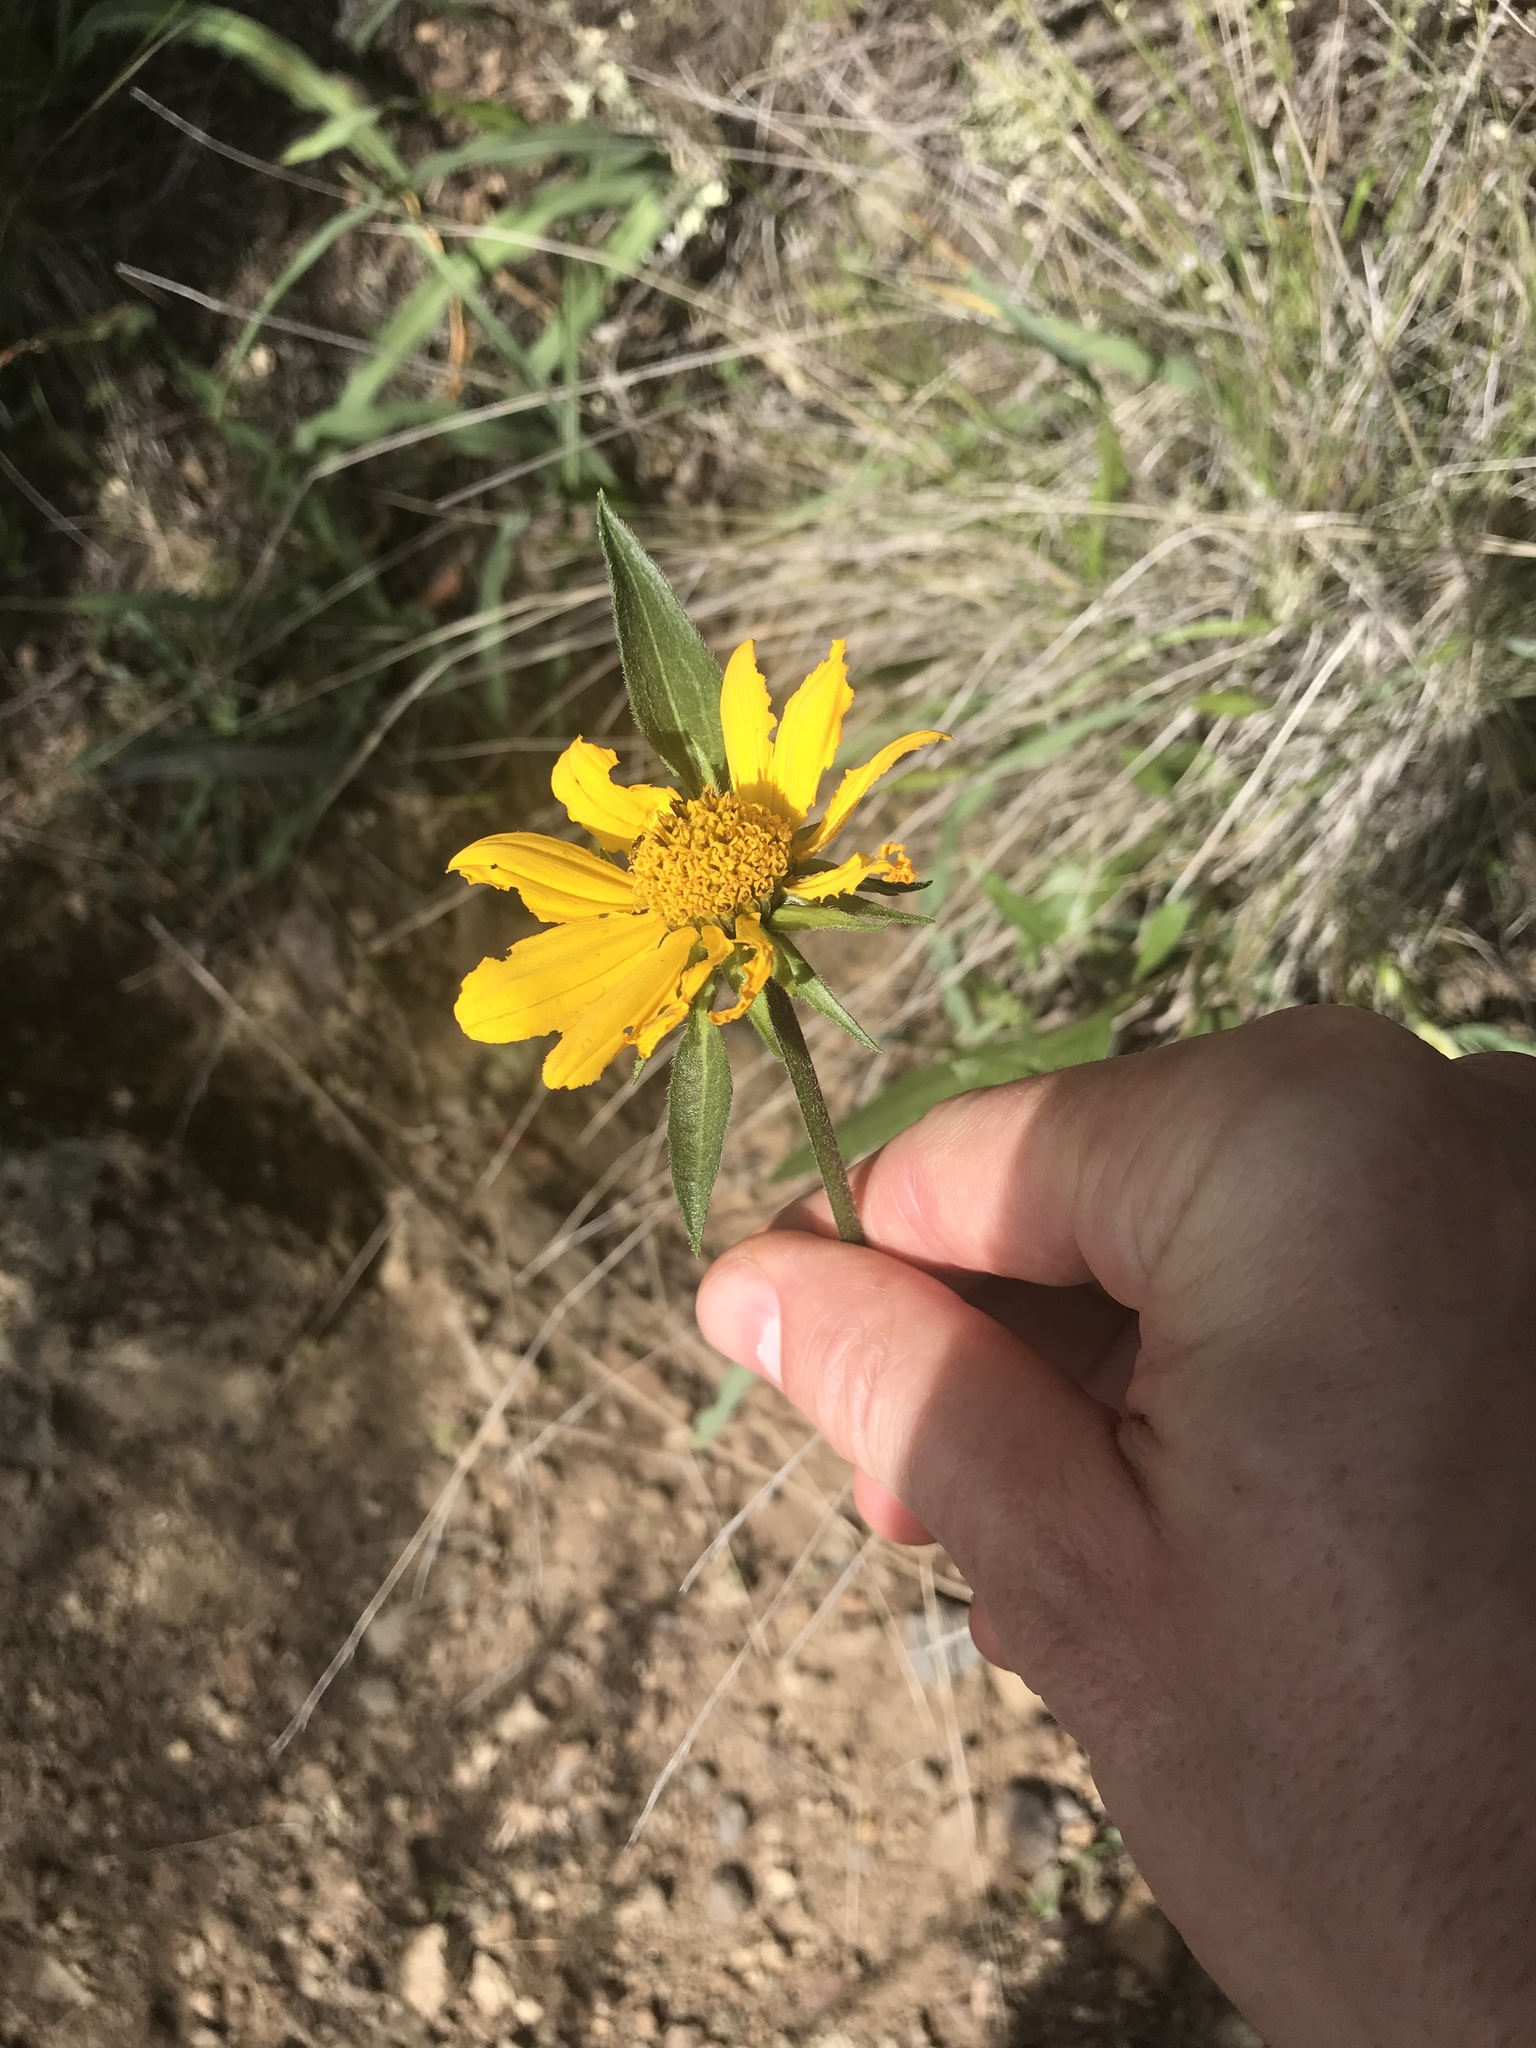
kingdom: Plantae
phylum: Tracheophyta
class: Magnoliopsida
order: Asterales
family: Asteraceae
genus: Wyethia
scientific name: Wyethia angustifolia
